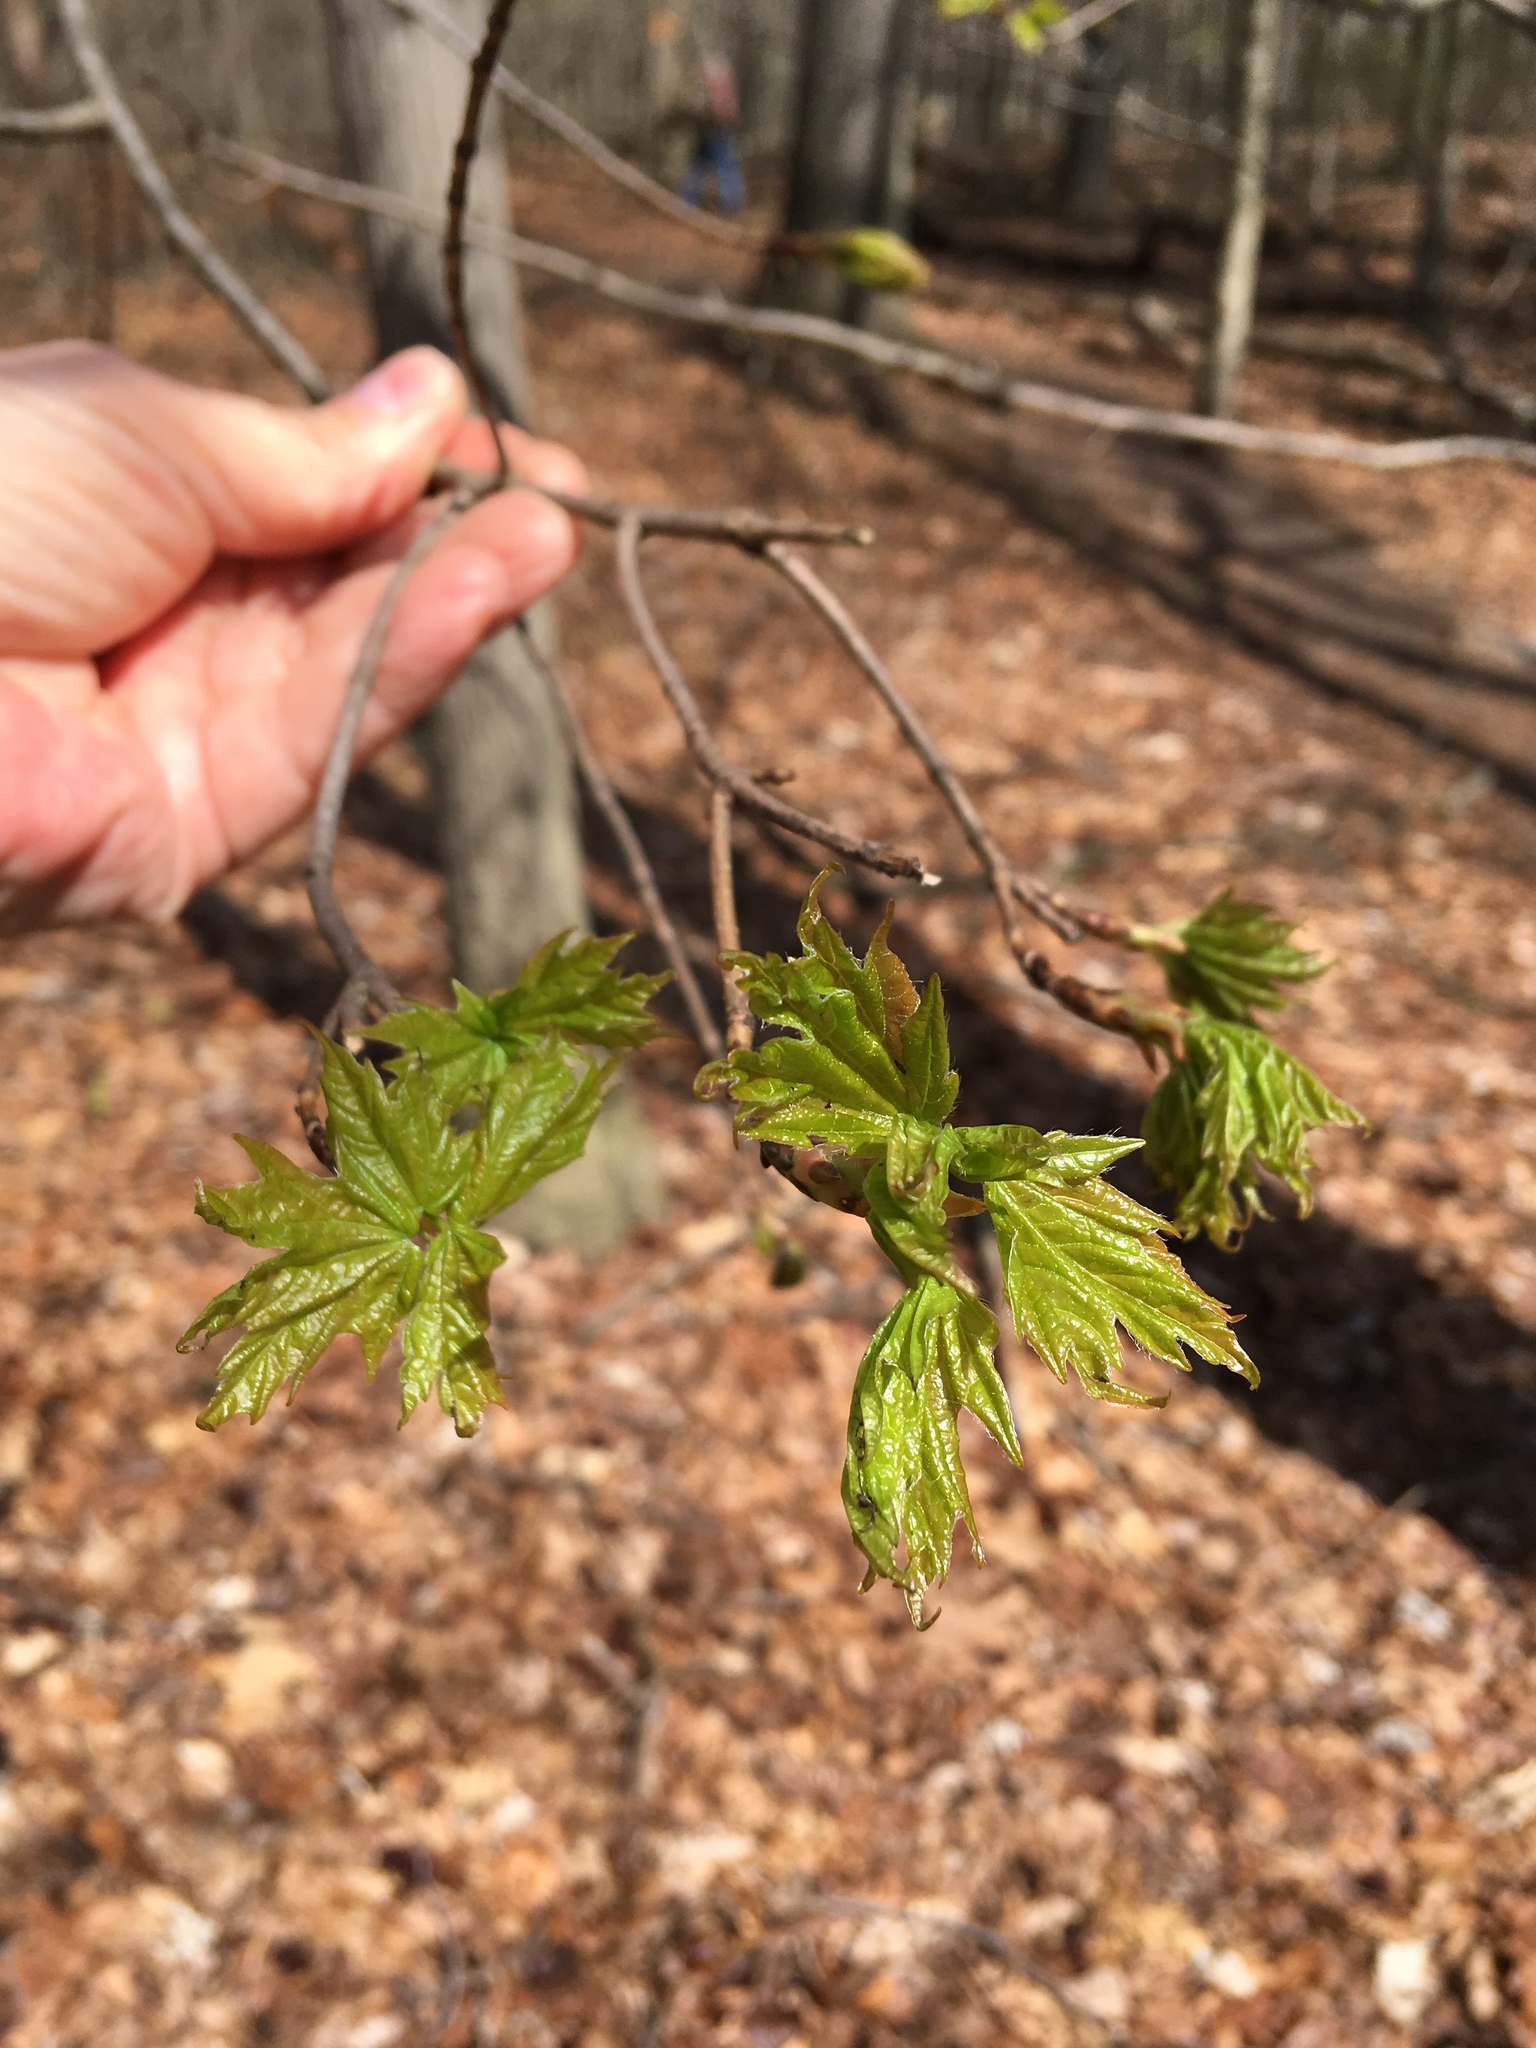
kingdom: Plantae
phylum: Tracheophyta
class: Magnoliopsida
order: Sapindales
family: Sapindaceae
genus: Acer
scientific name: Acer platanoides
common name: Norway maple
